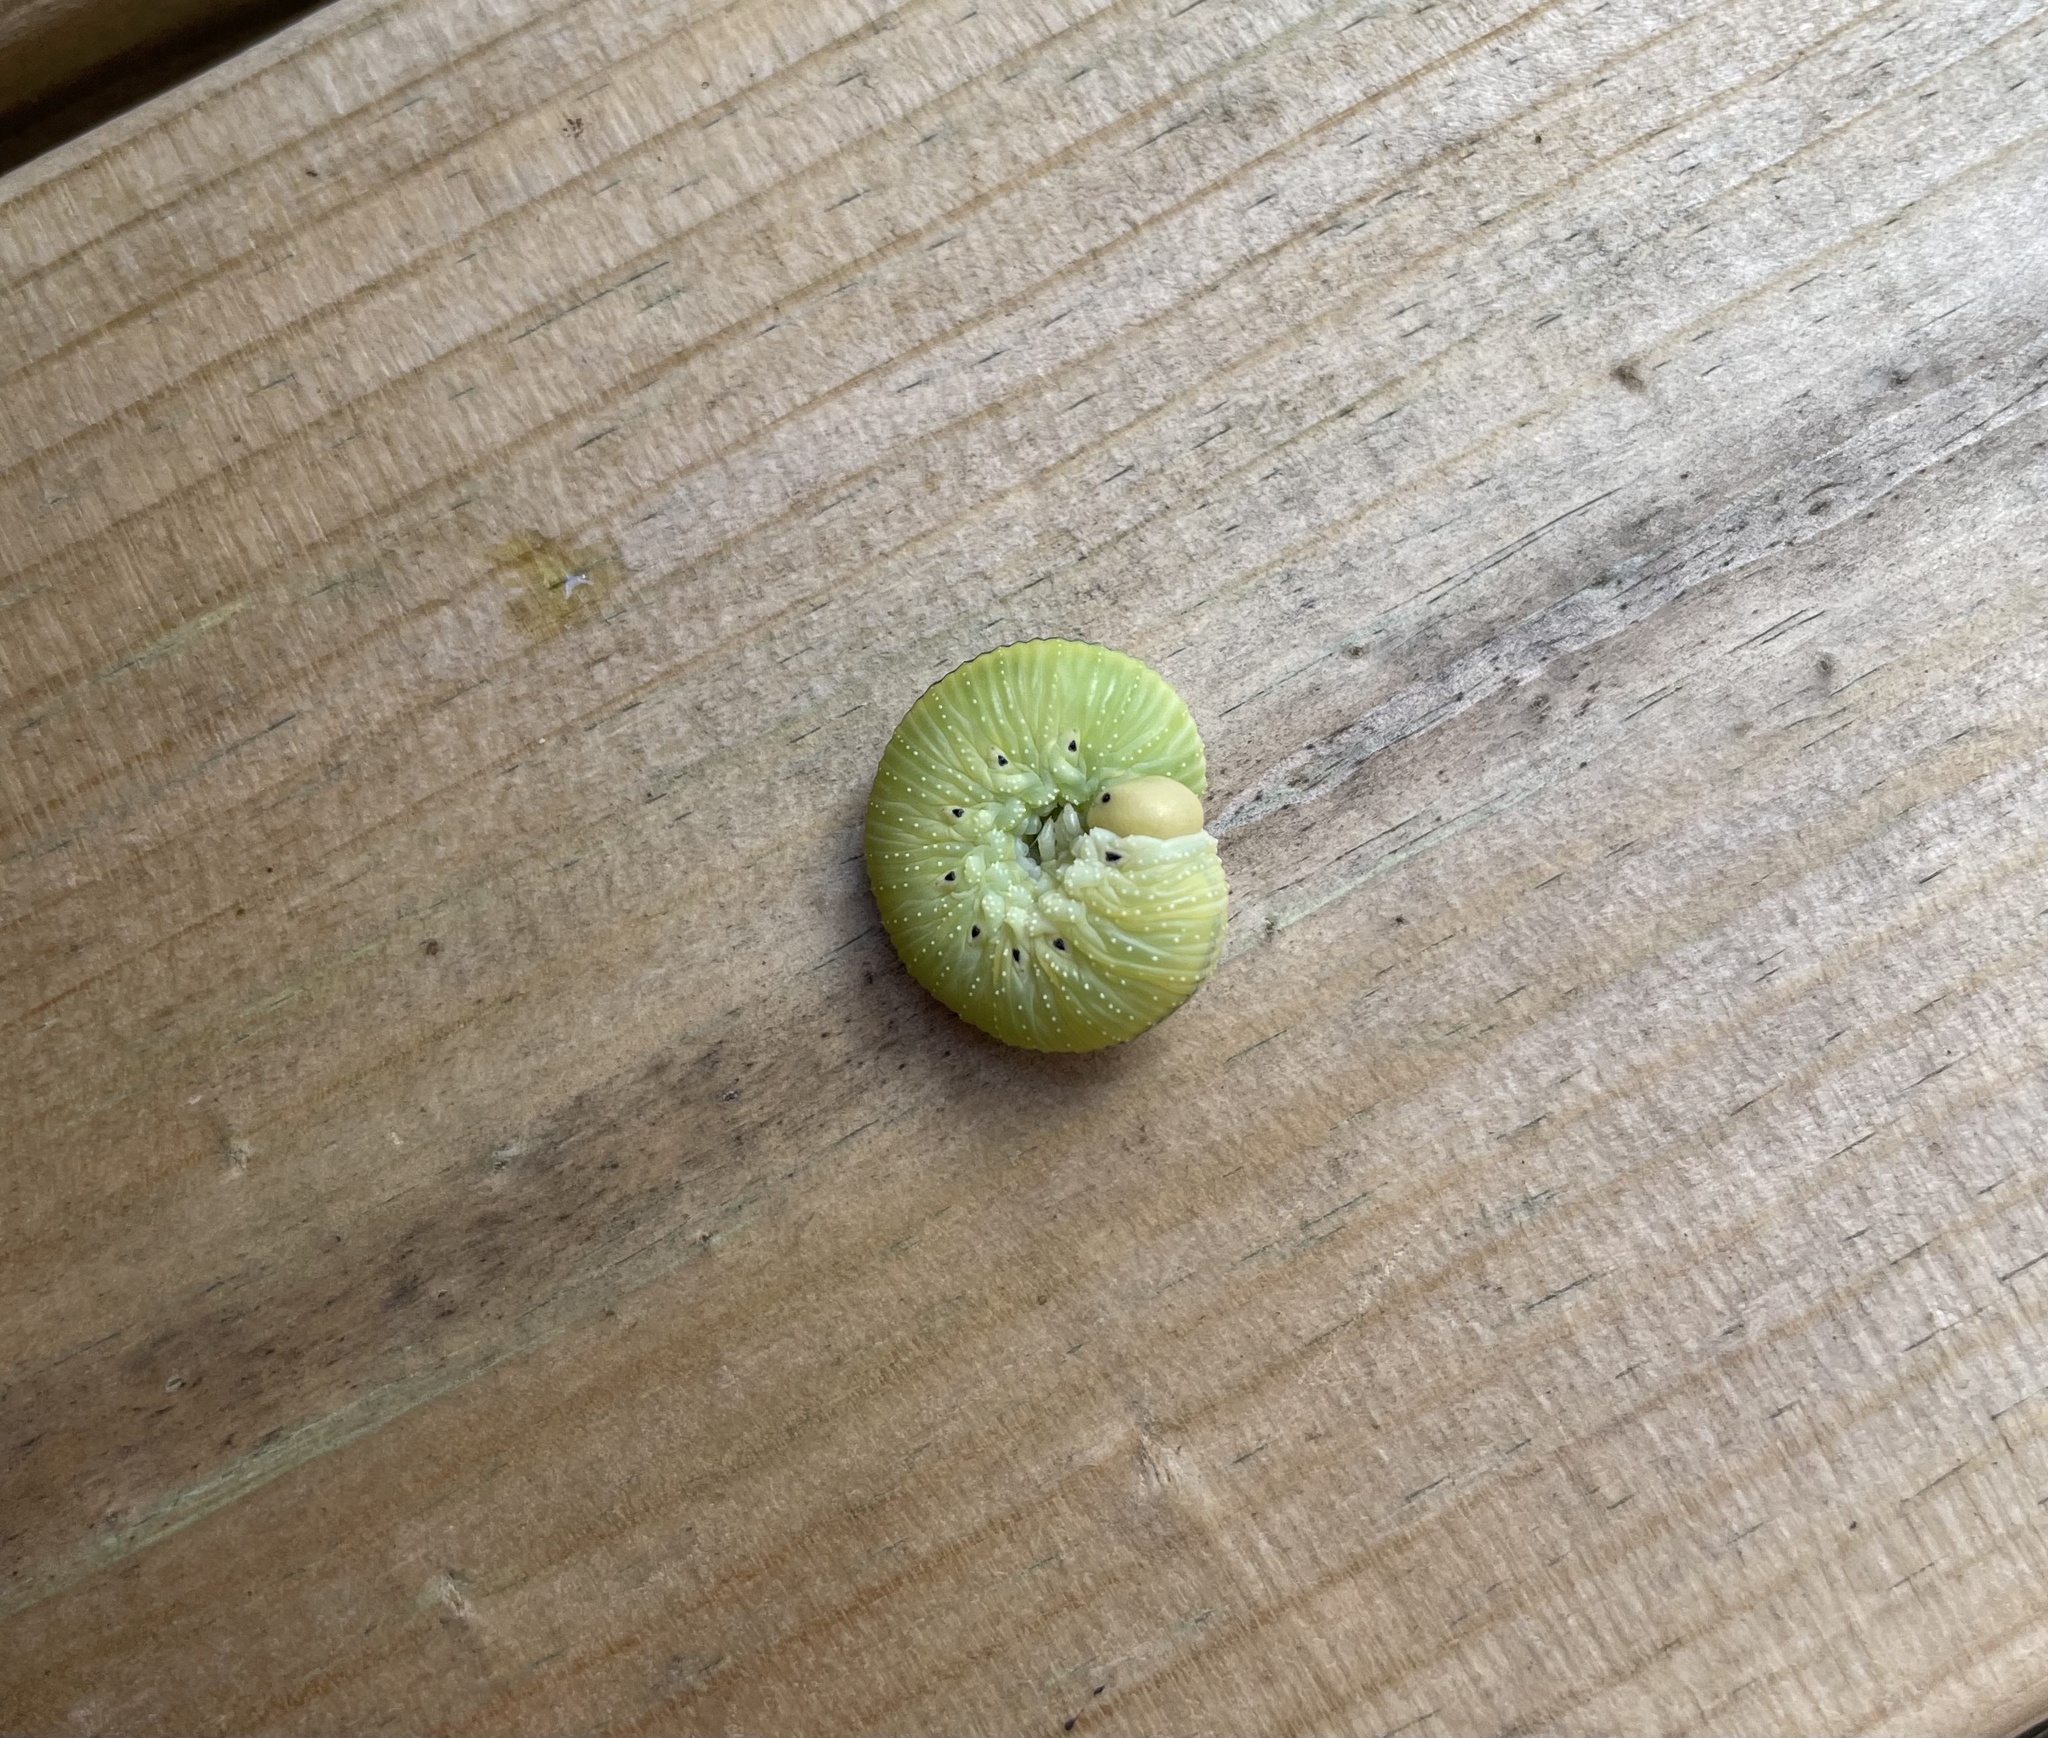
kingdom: Animalia
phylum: Arthropoda
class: Insecta
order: Hymenoptera
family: Cimbicidae
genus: Cimbex
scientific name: Cimbex femoratus
